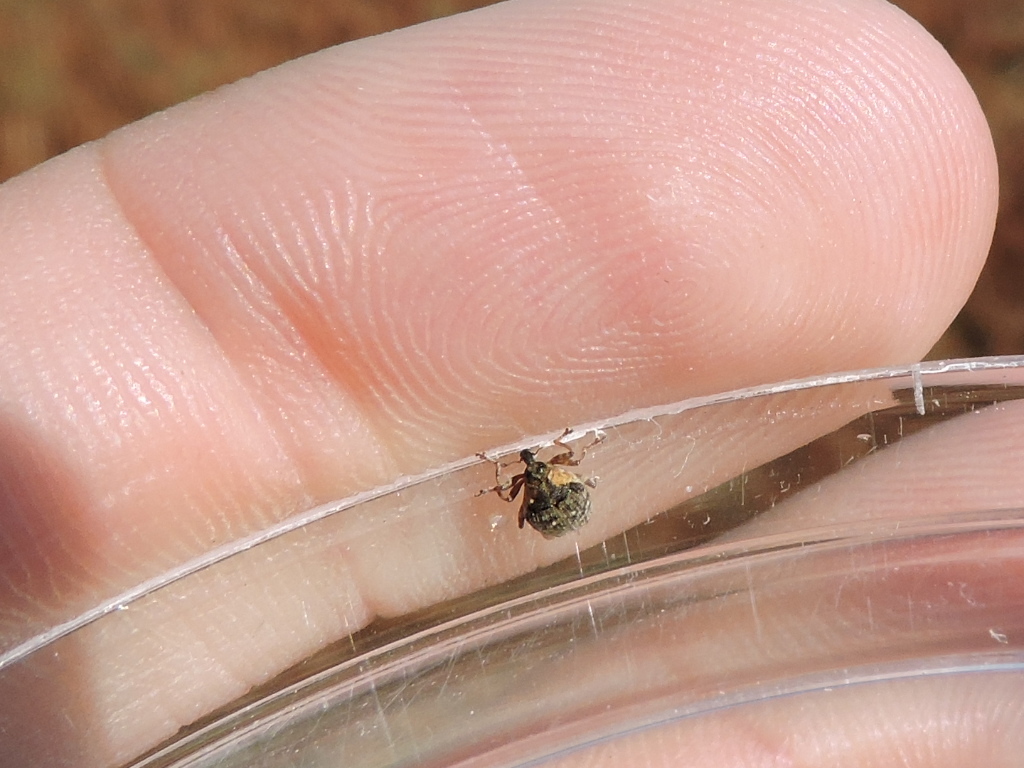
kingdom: Animalia
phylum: Arthropoda
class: Insecta
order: Coleoptera
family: Curculionidae
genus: Perigaster
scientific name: Perigaster cretura
